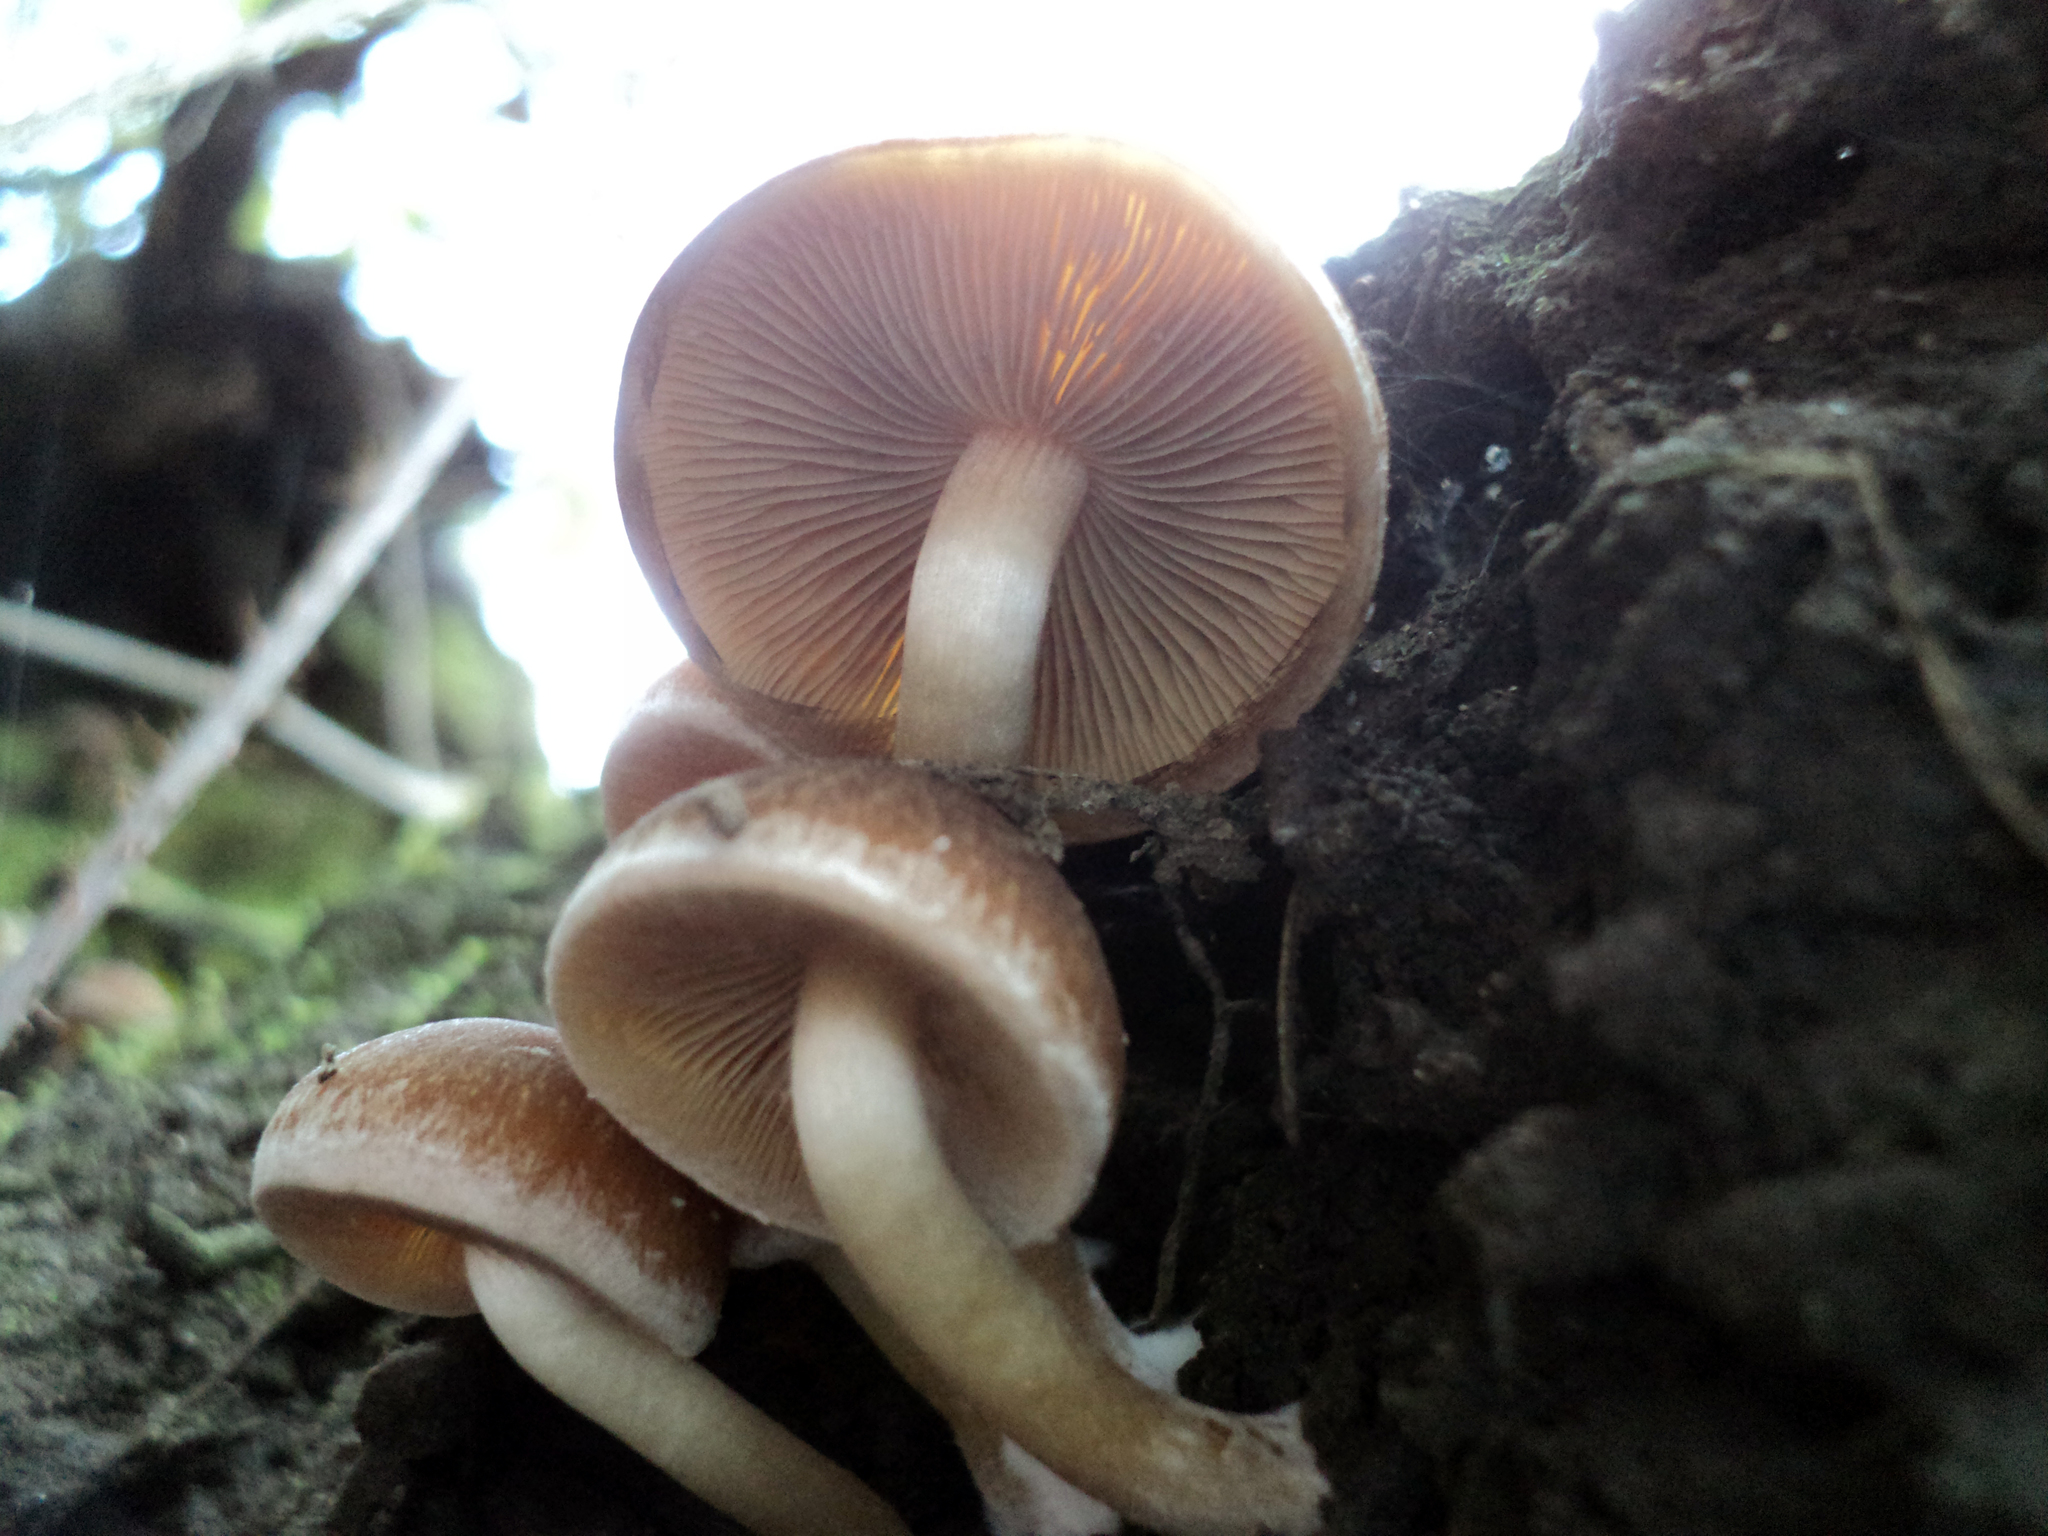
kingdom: Fungi
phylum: Basidiomycota
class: Agaricomycetes
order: Agaricales
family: Psathyrellaceae
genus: Psathyrella
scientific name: Psathyrella piluliformis
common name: Common stump brittlestem
